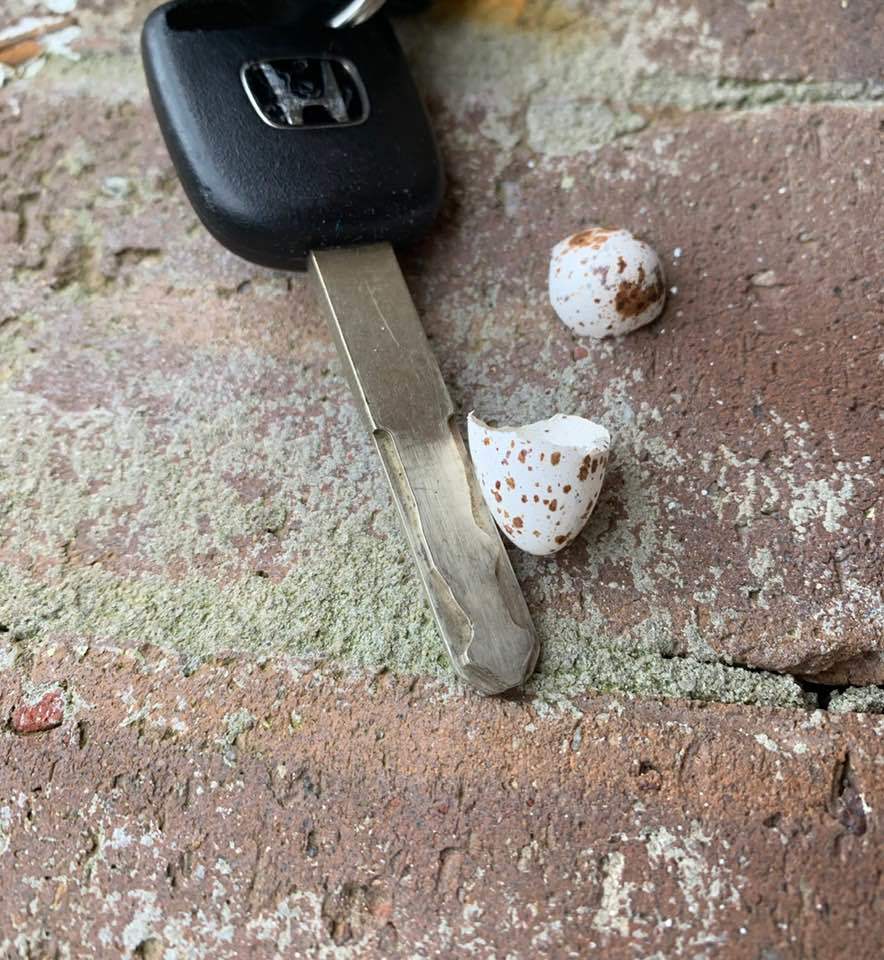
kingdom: Animalia
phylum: Chordata
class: Aves
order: Passeriformes
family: Hirundinidae
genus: Hirundo
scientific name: Hirundo rustica
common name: Barn swallow
